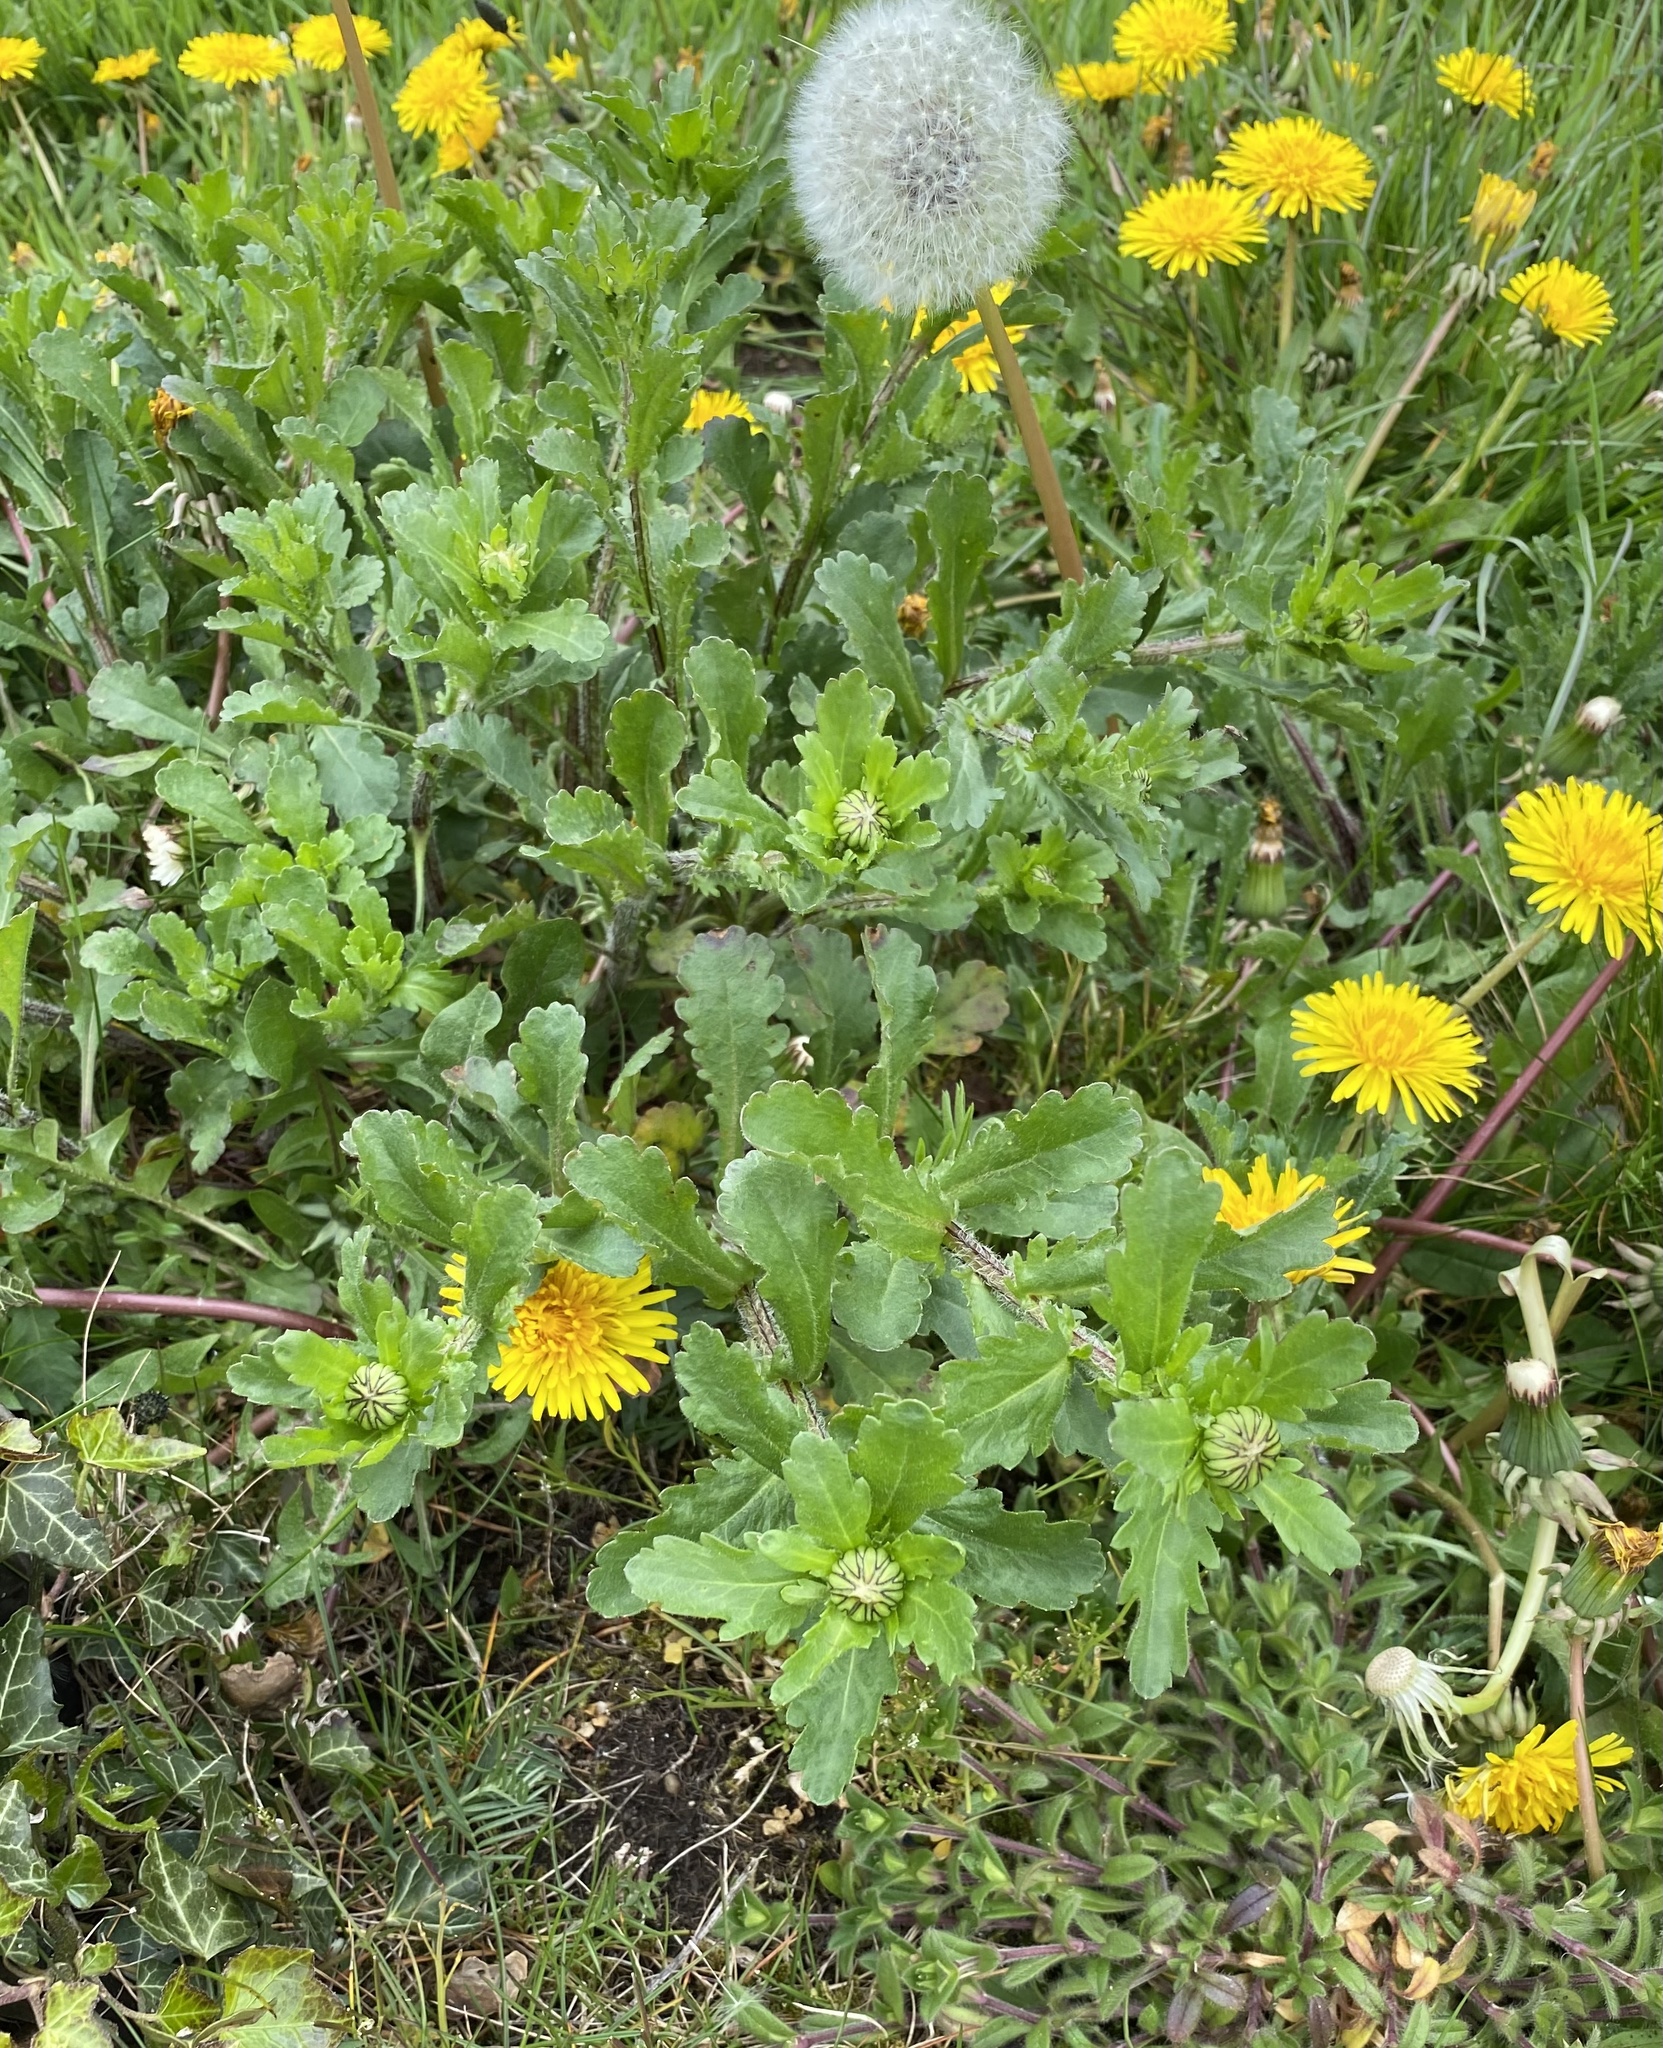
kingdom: Plantae
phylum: Tracheophyta
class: Magnoliopsida
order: Asterales
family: Asteraceae
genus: Taraxacum
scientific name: Taraxacum officinale
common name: Common dandelion
